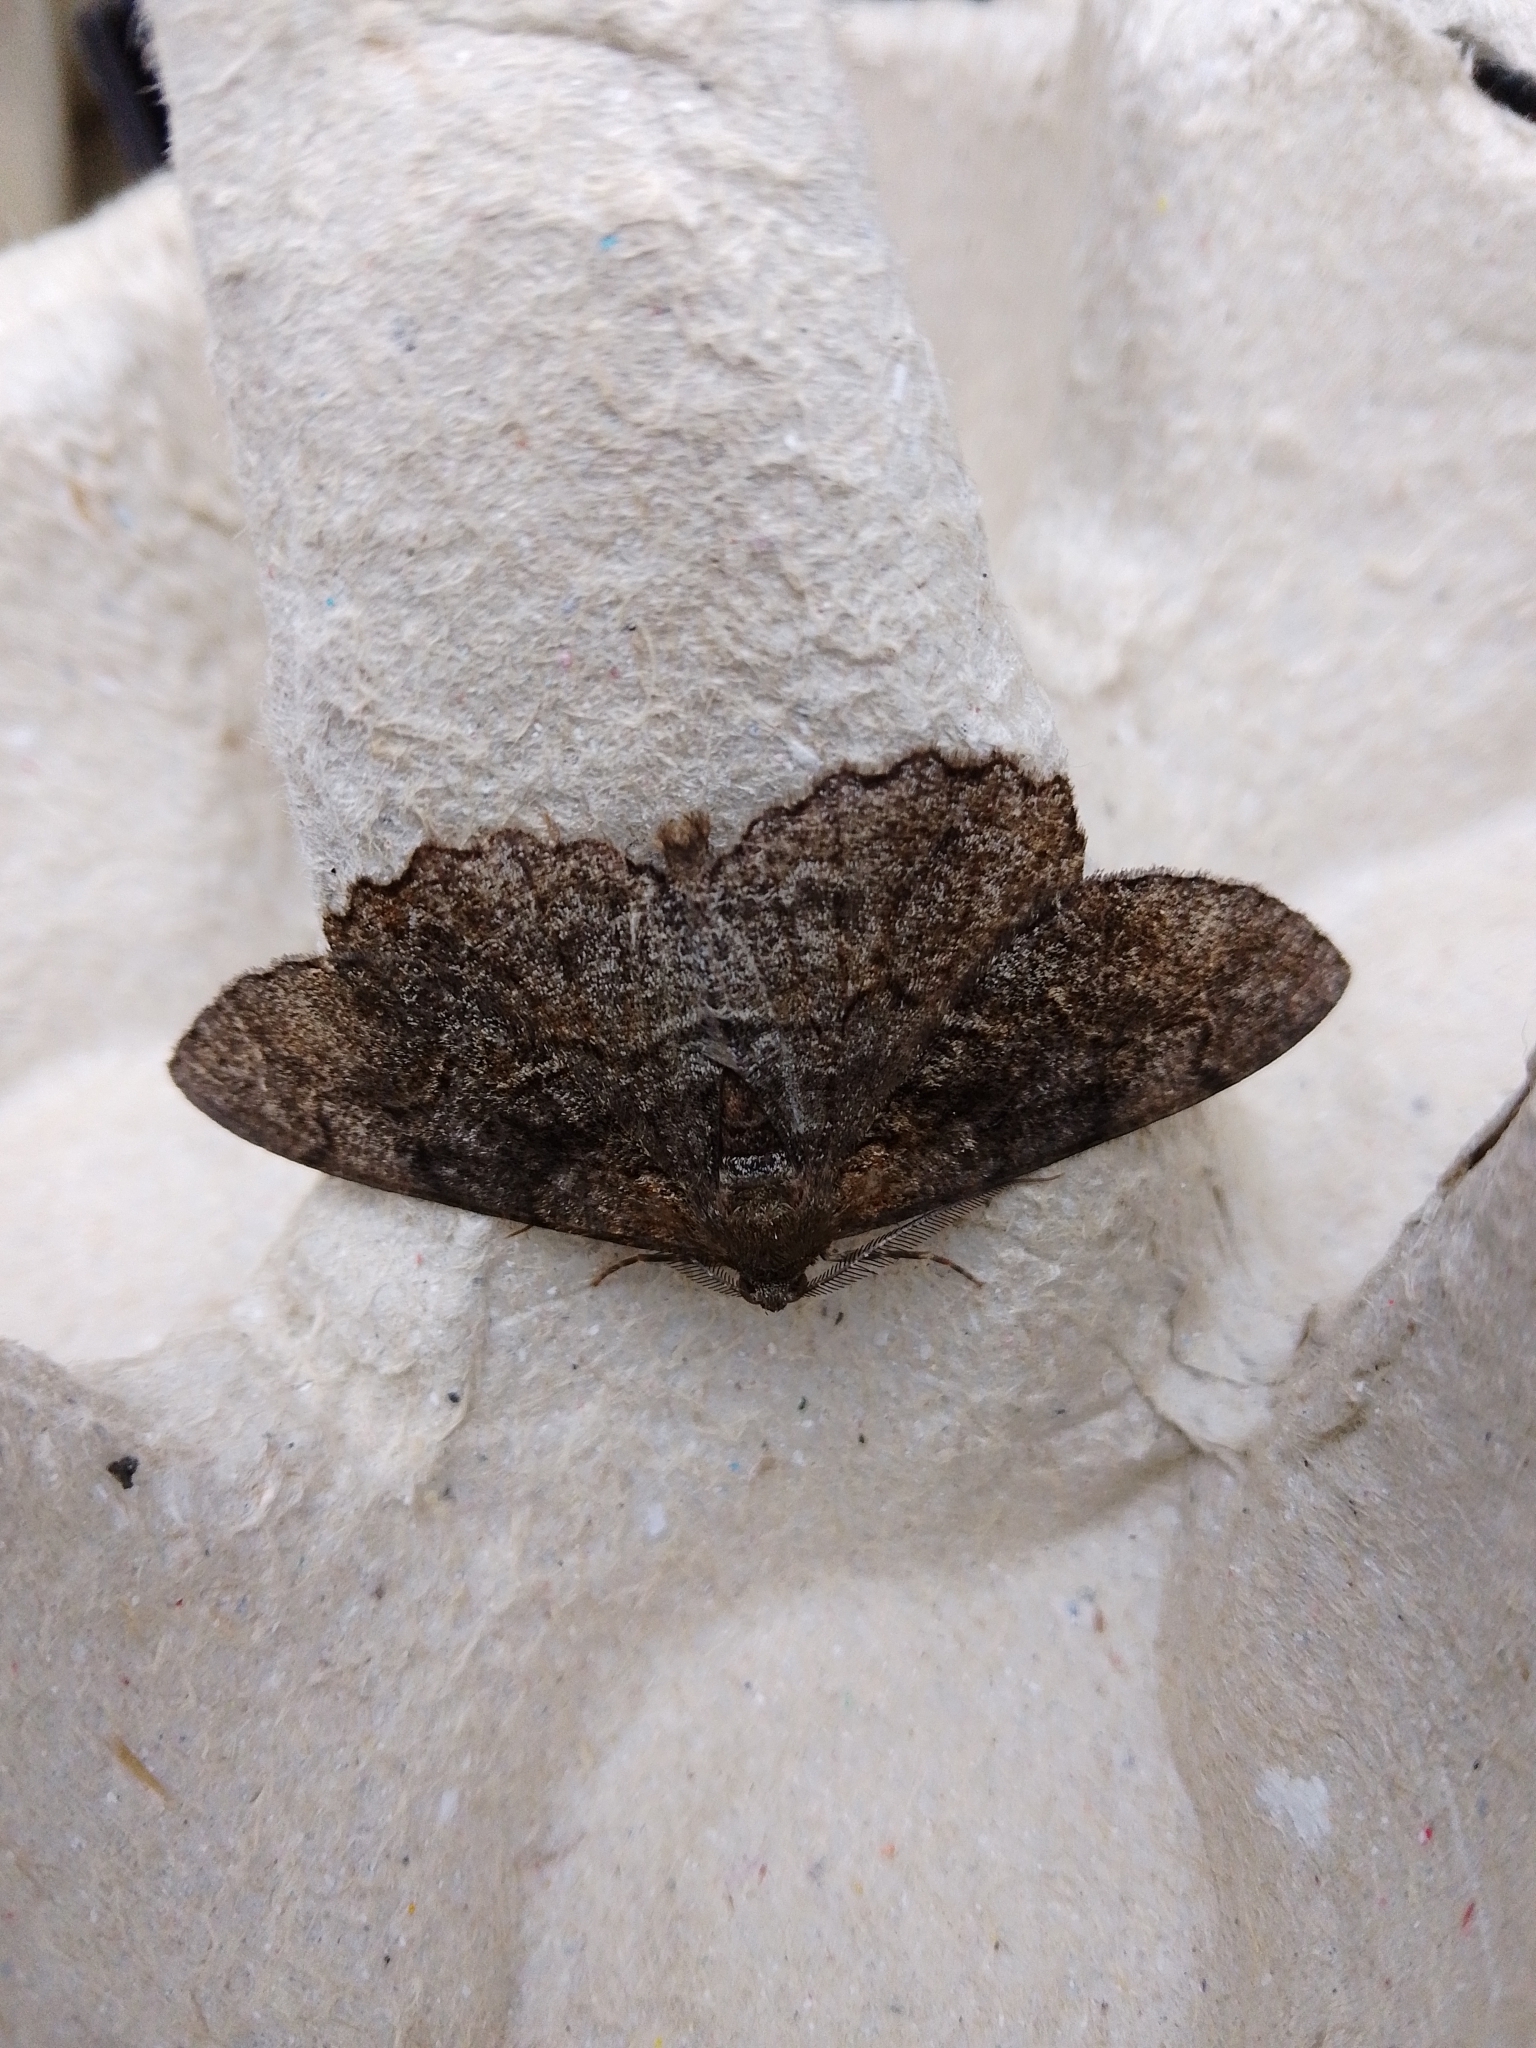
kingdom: Animalia
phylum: Arthropoda
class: Insecta
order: Lepidoptera
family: Geometridae
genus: Alcis
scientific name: Alcis repandata
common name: Mottled beauty
